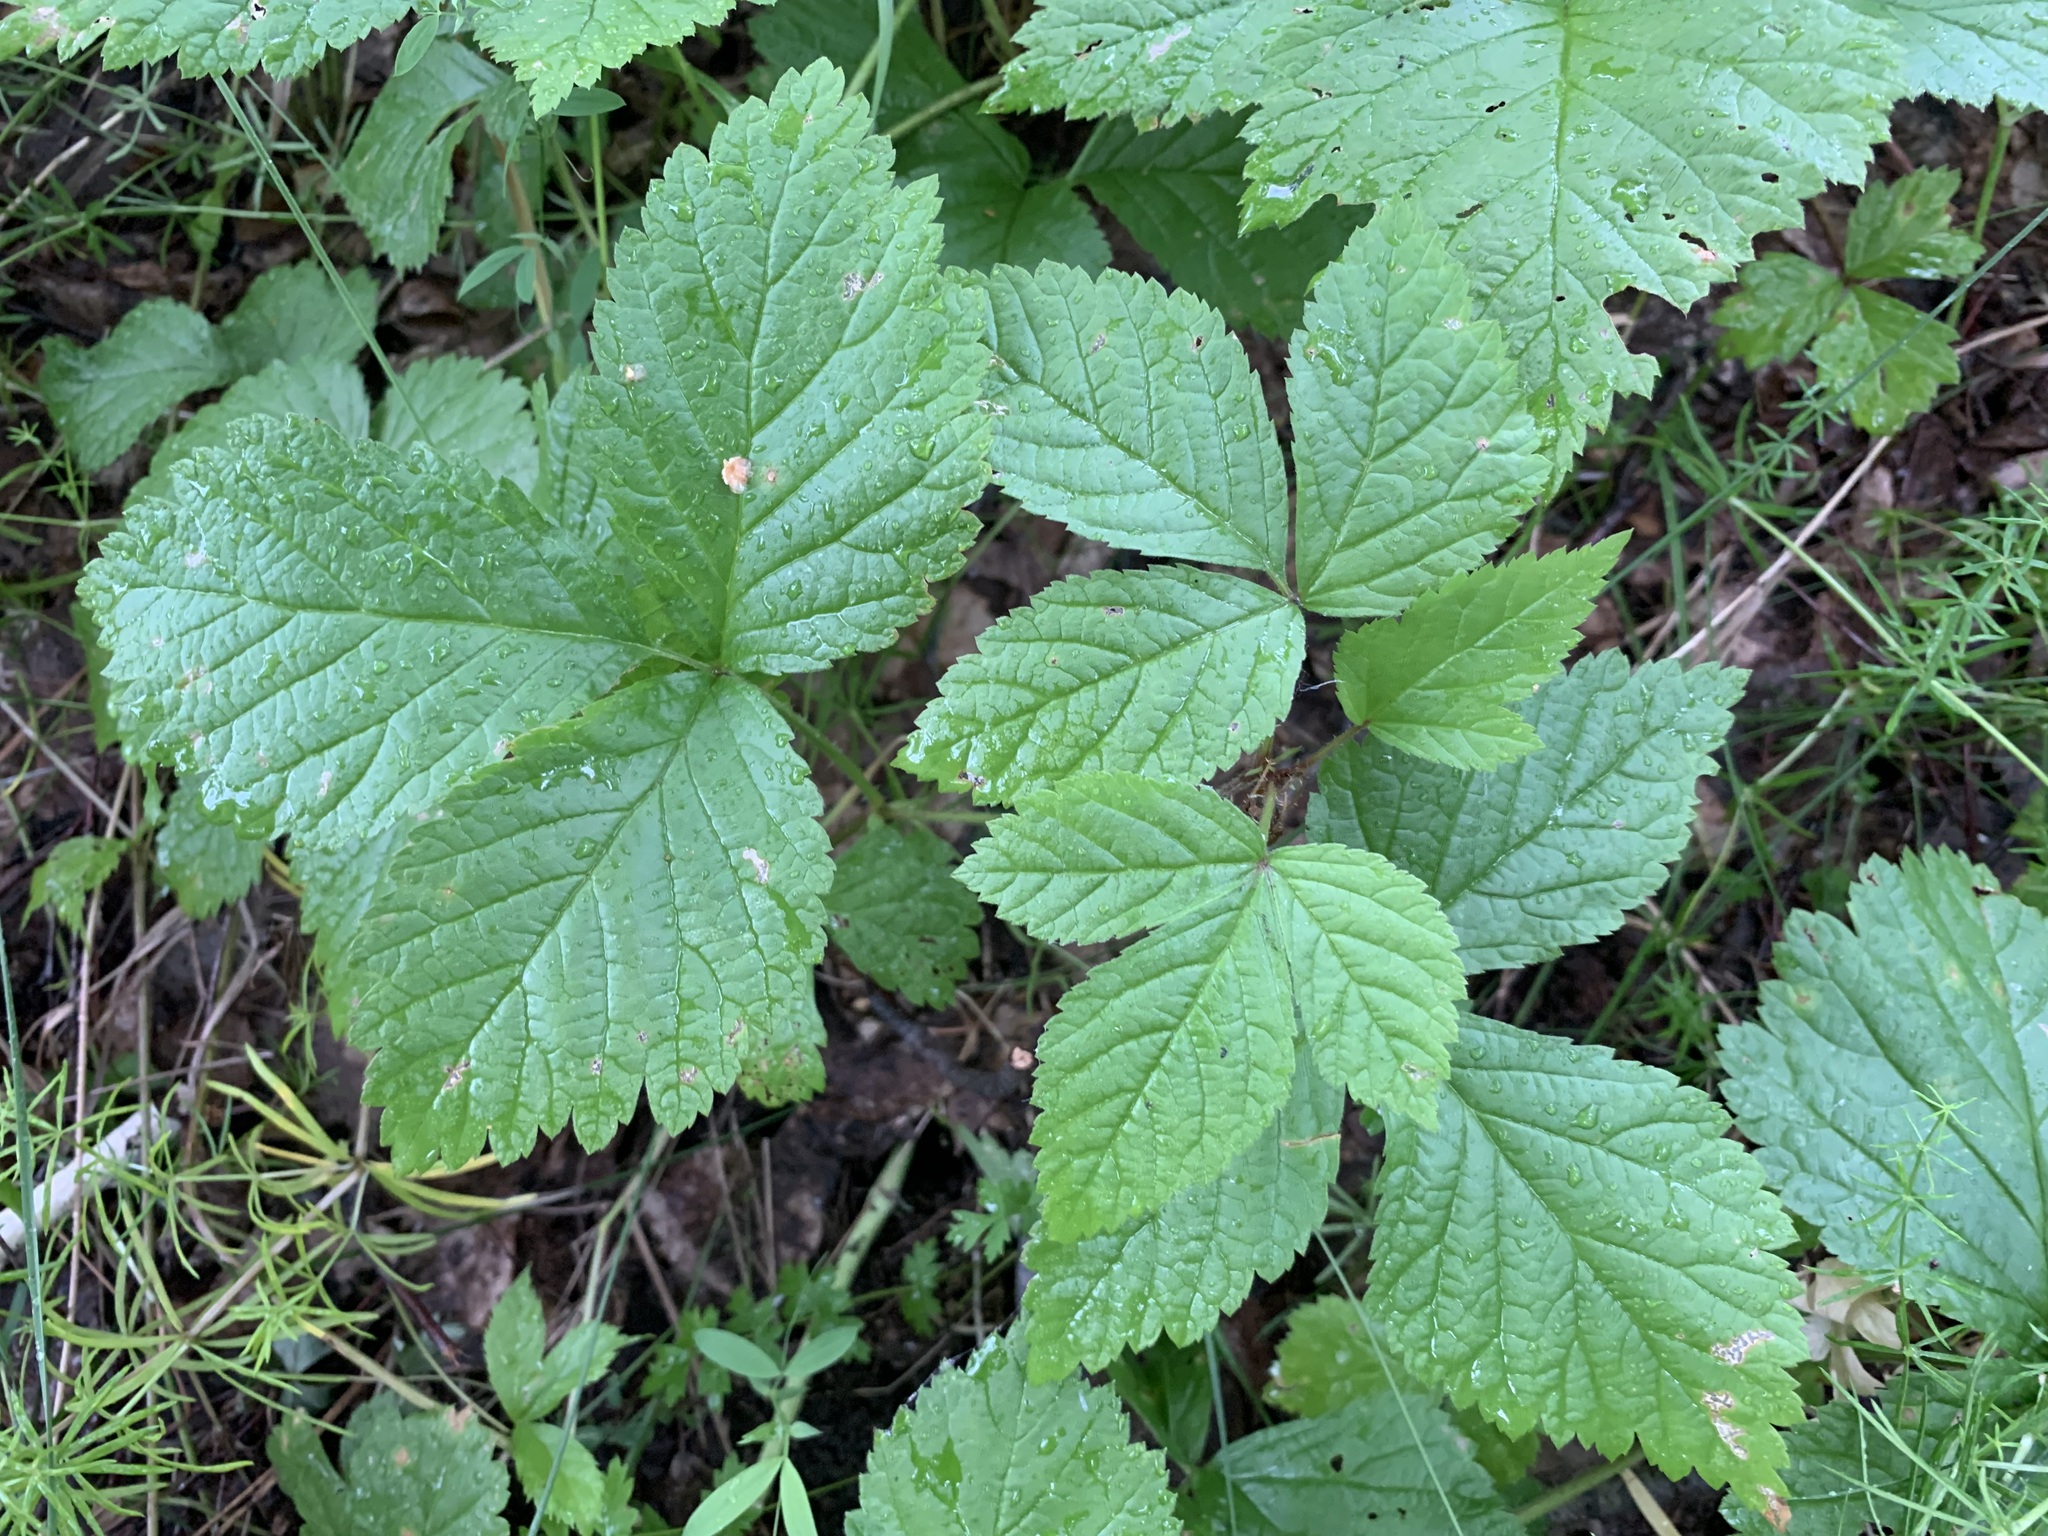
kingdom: Plantae
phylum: Tracheophyta
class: Magnoliopsida
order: Rosales
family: Rosaceae
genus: Rubus
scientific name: Rubus saxatilis
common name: Stone bramble
